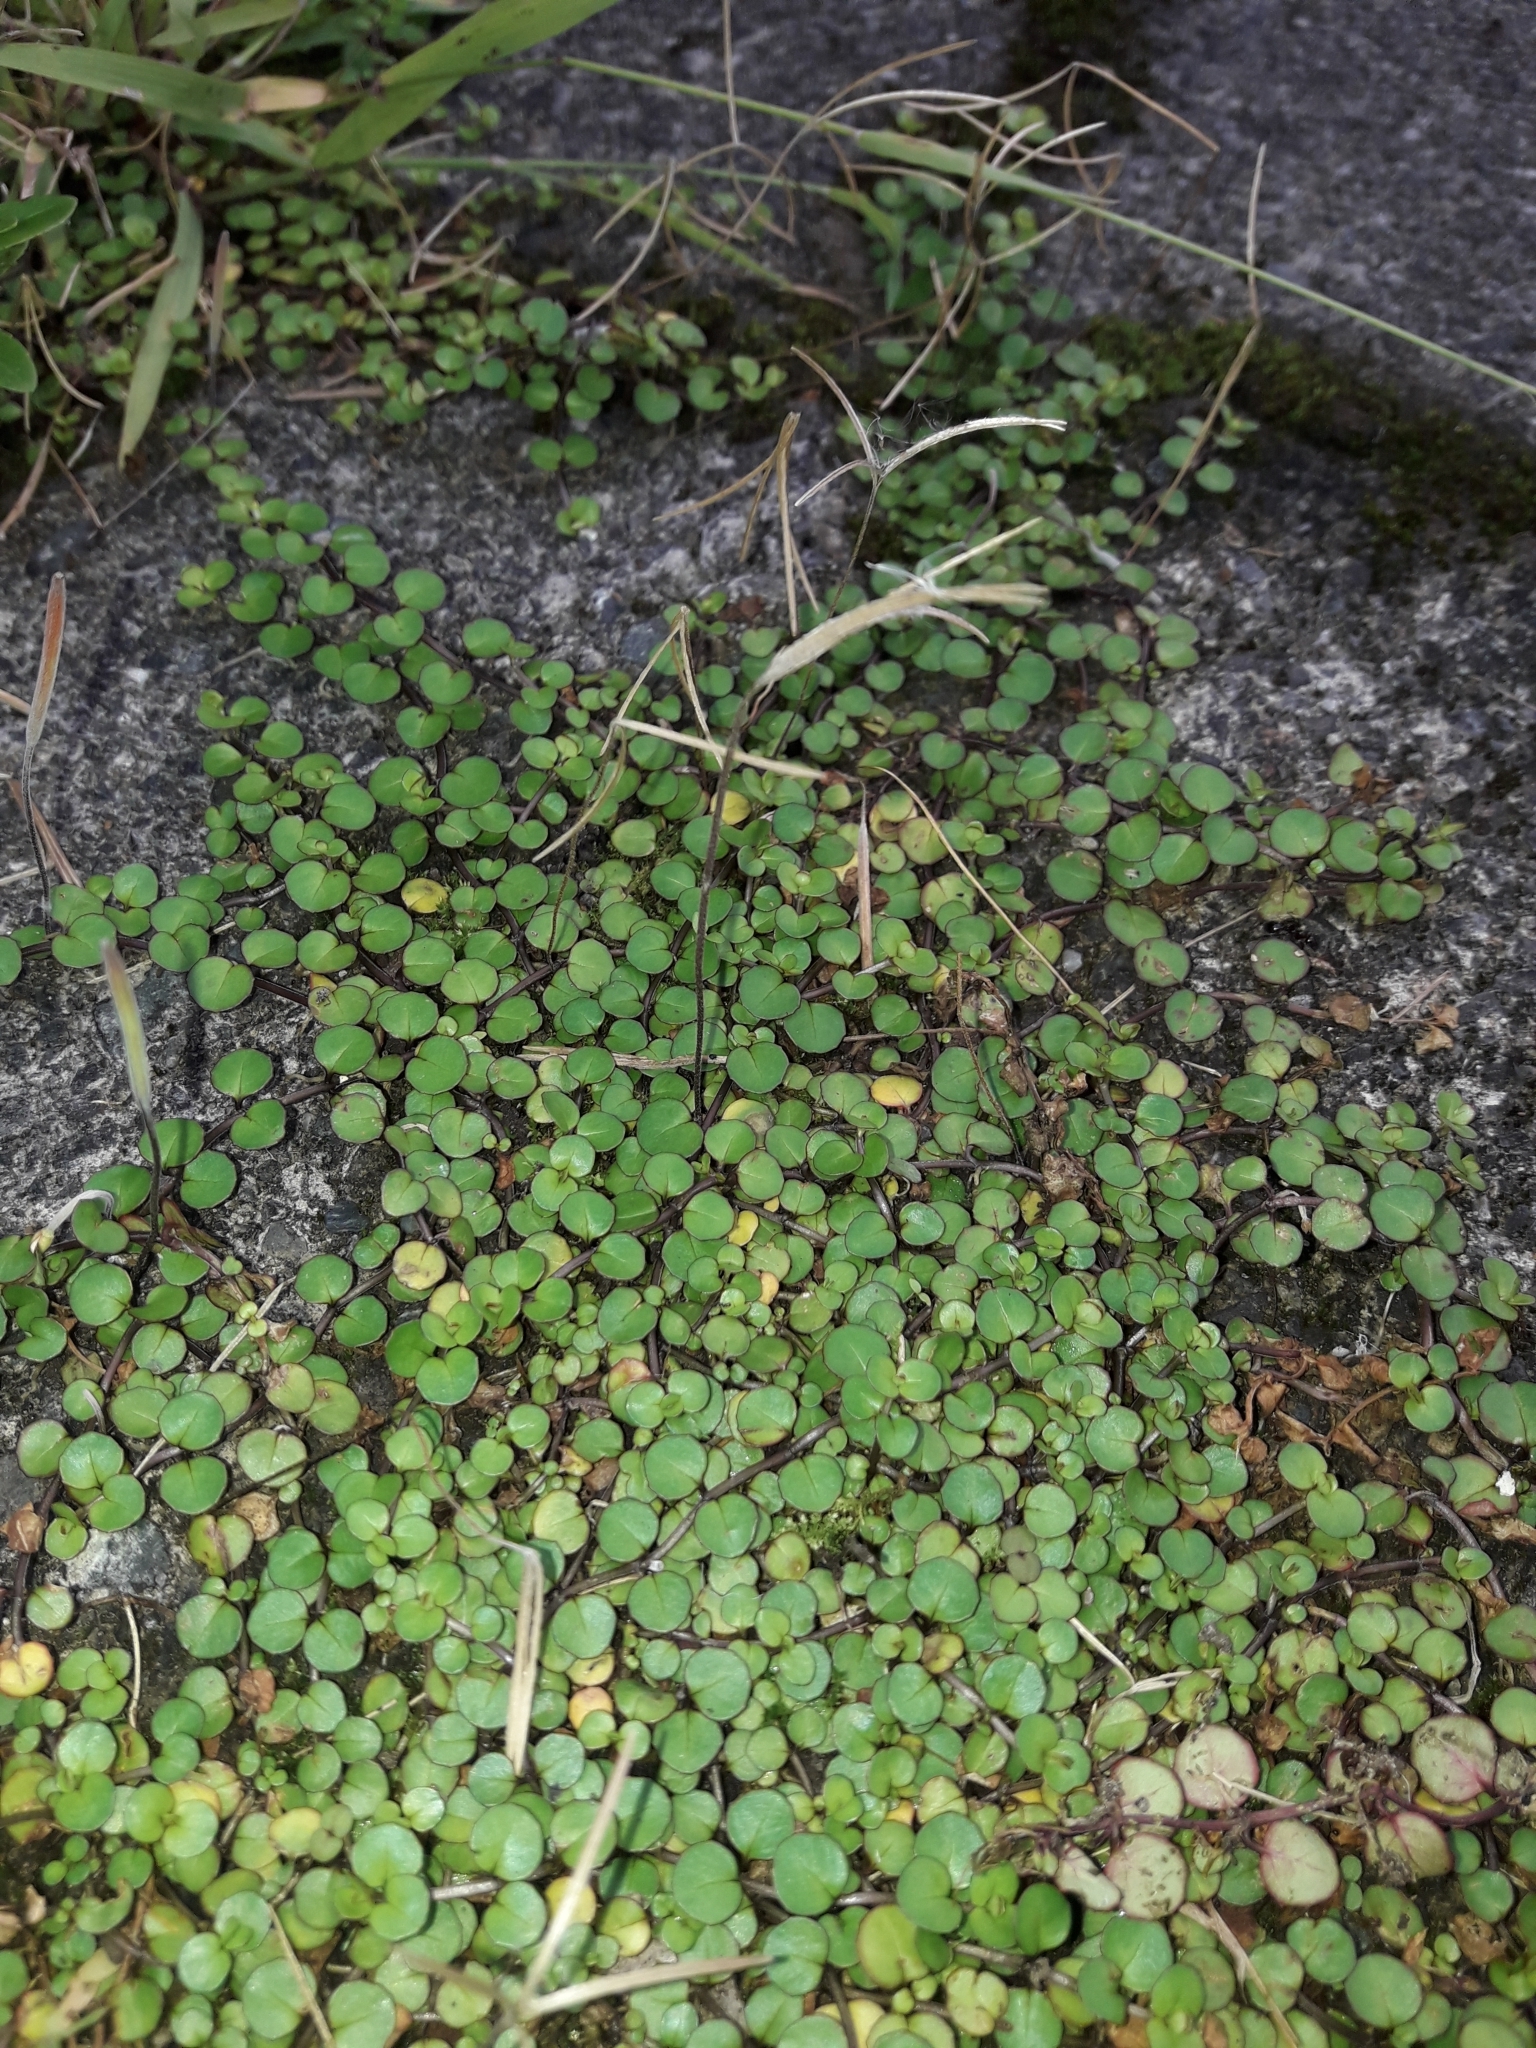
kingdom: Plantae
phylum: Tracheophyta
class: Magnoliopsida
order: Myrtales
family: Onagraceae
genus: Epilobium
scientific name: Epilobium nummularifolium
